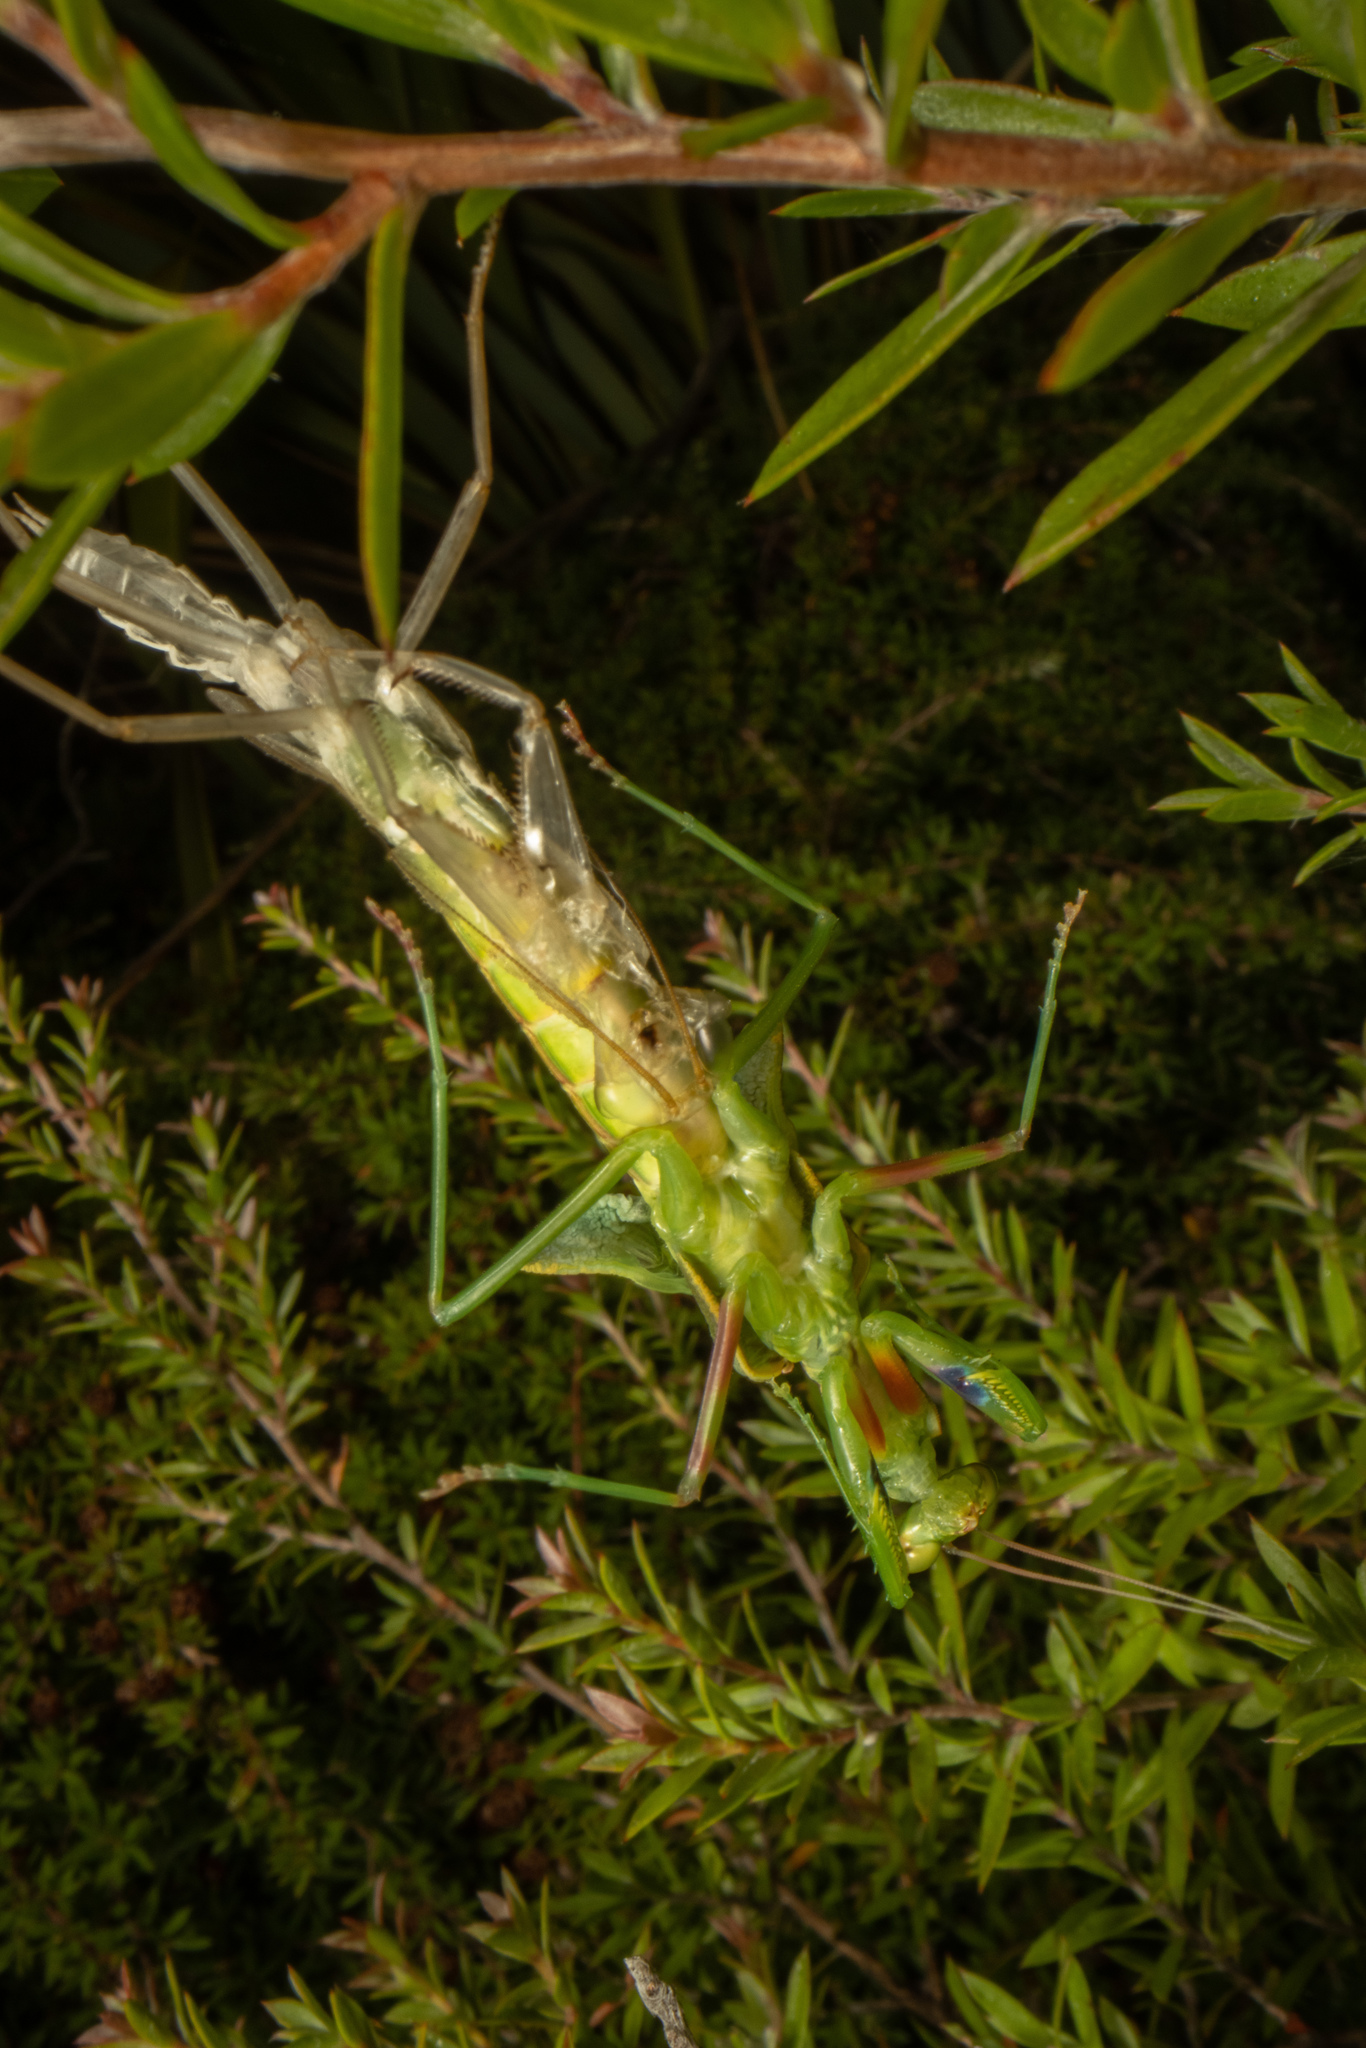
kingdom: Animalia
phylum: Arthropoda
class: Insecta
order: Mantodea
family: Mantidae
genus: Orthodera
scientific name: Orthodera novaezealandiae
